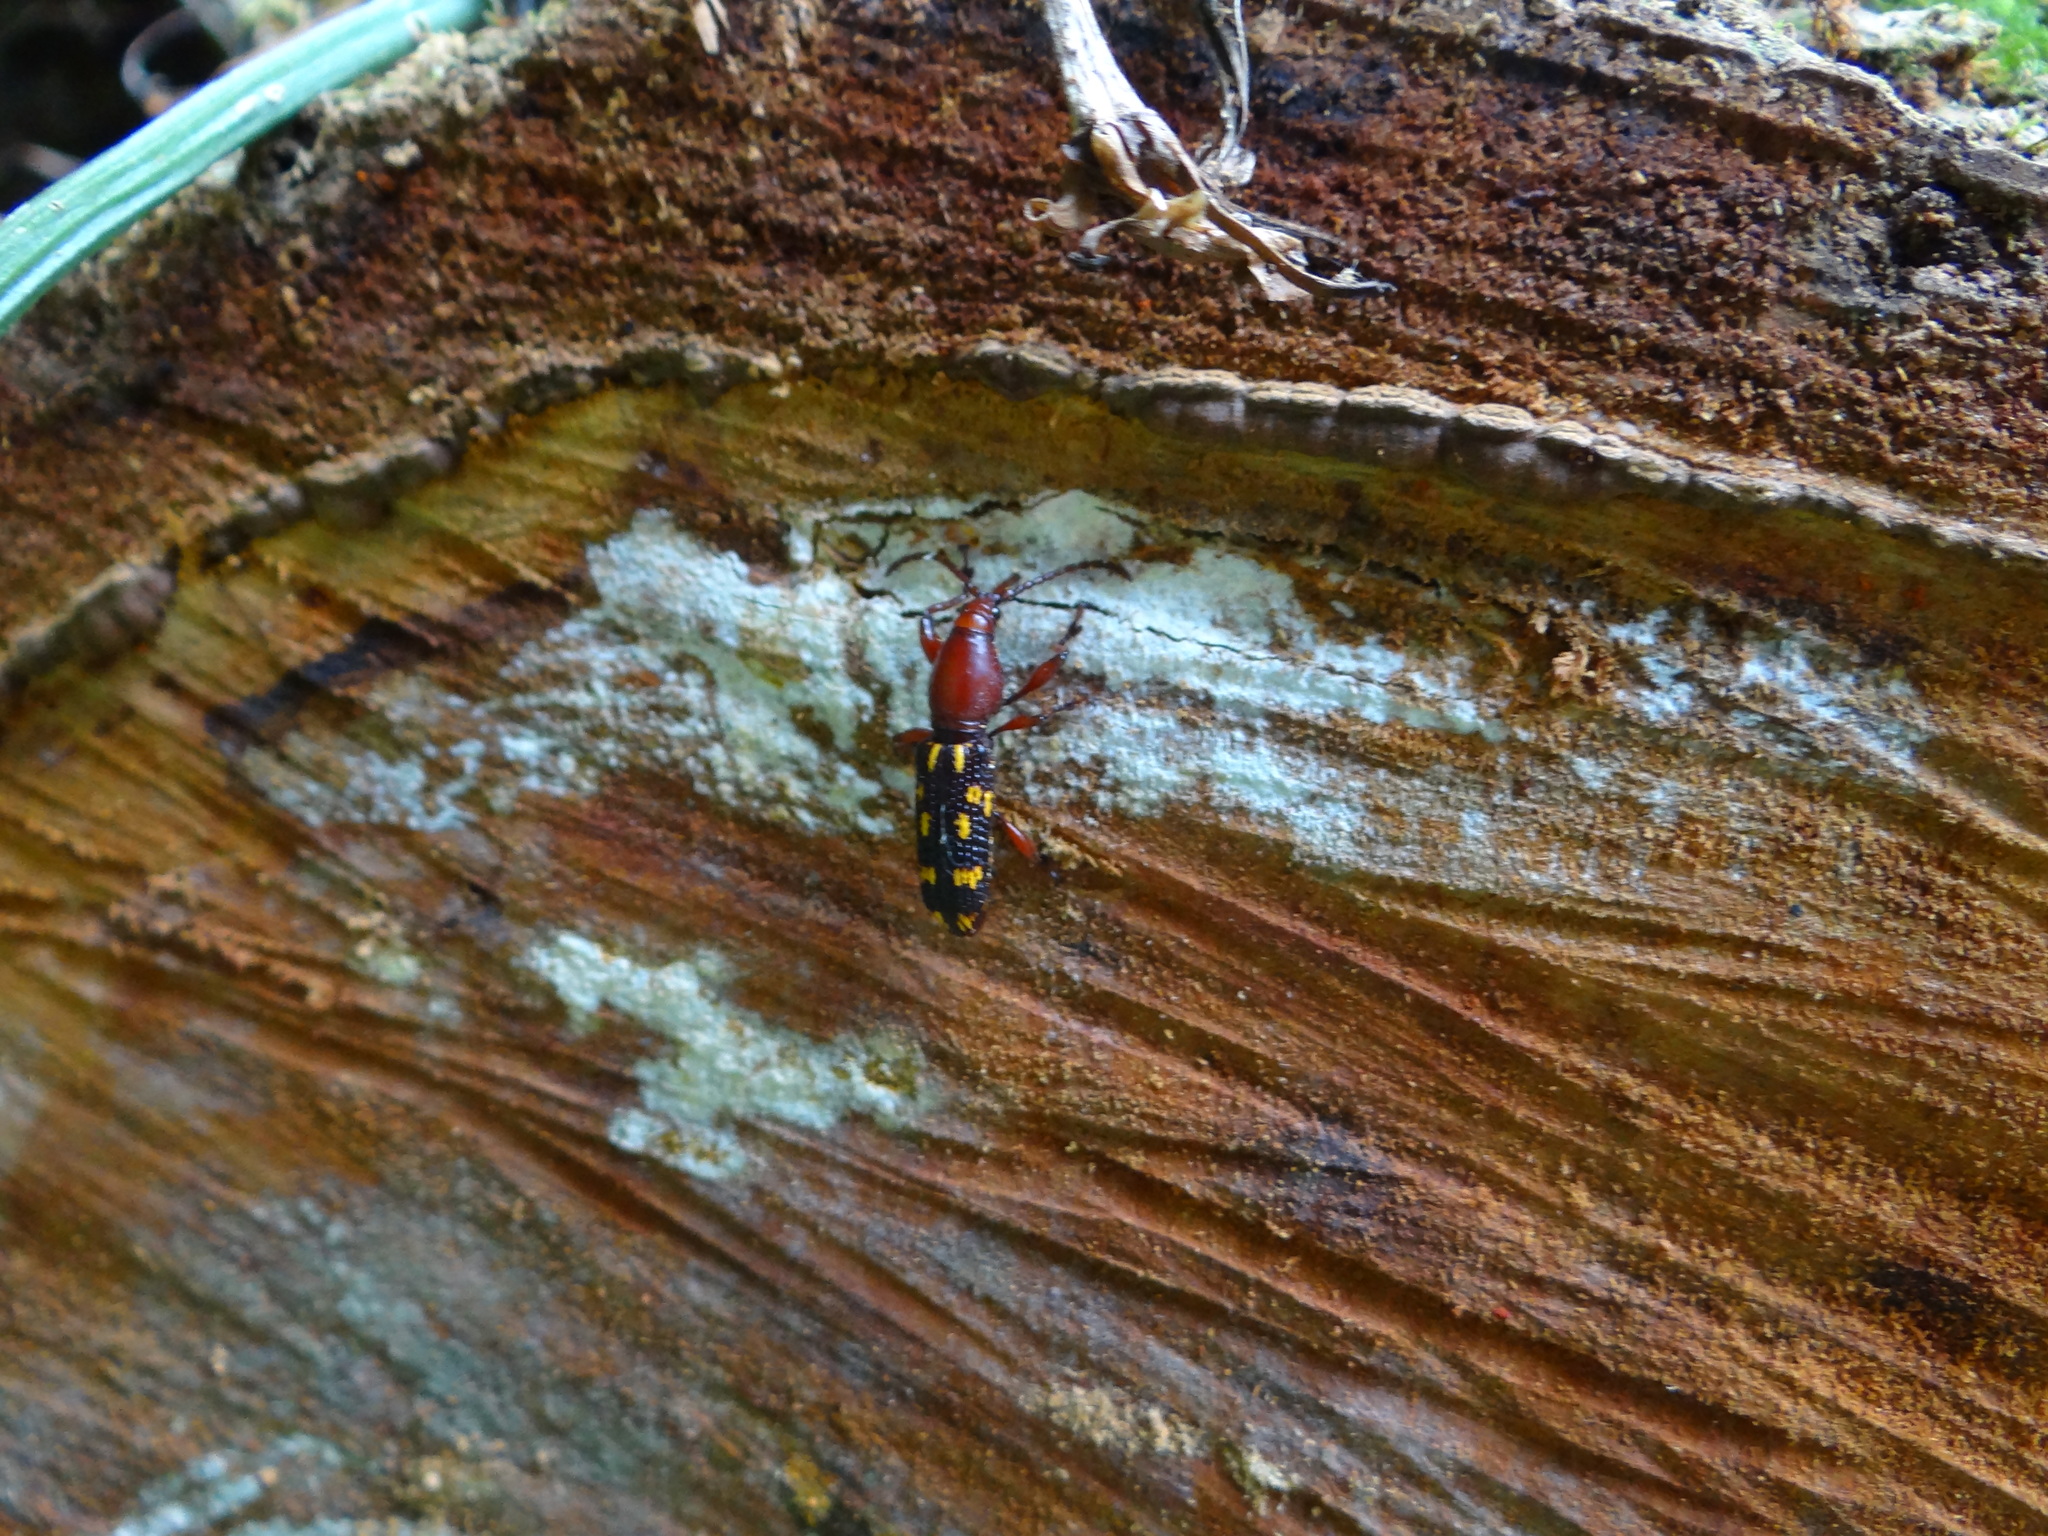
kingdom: Animalia
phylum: Arthropoda
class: Insecta
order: Coleoptera
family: Brentidae
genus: Baryrhynchus
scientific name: Baryrhynchus poweri
